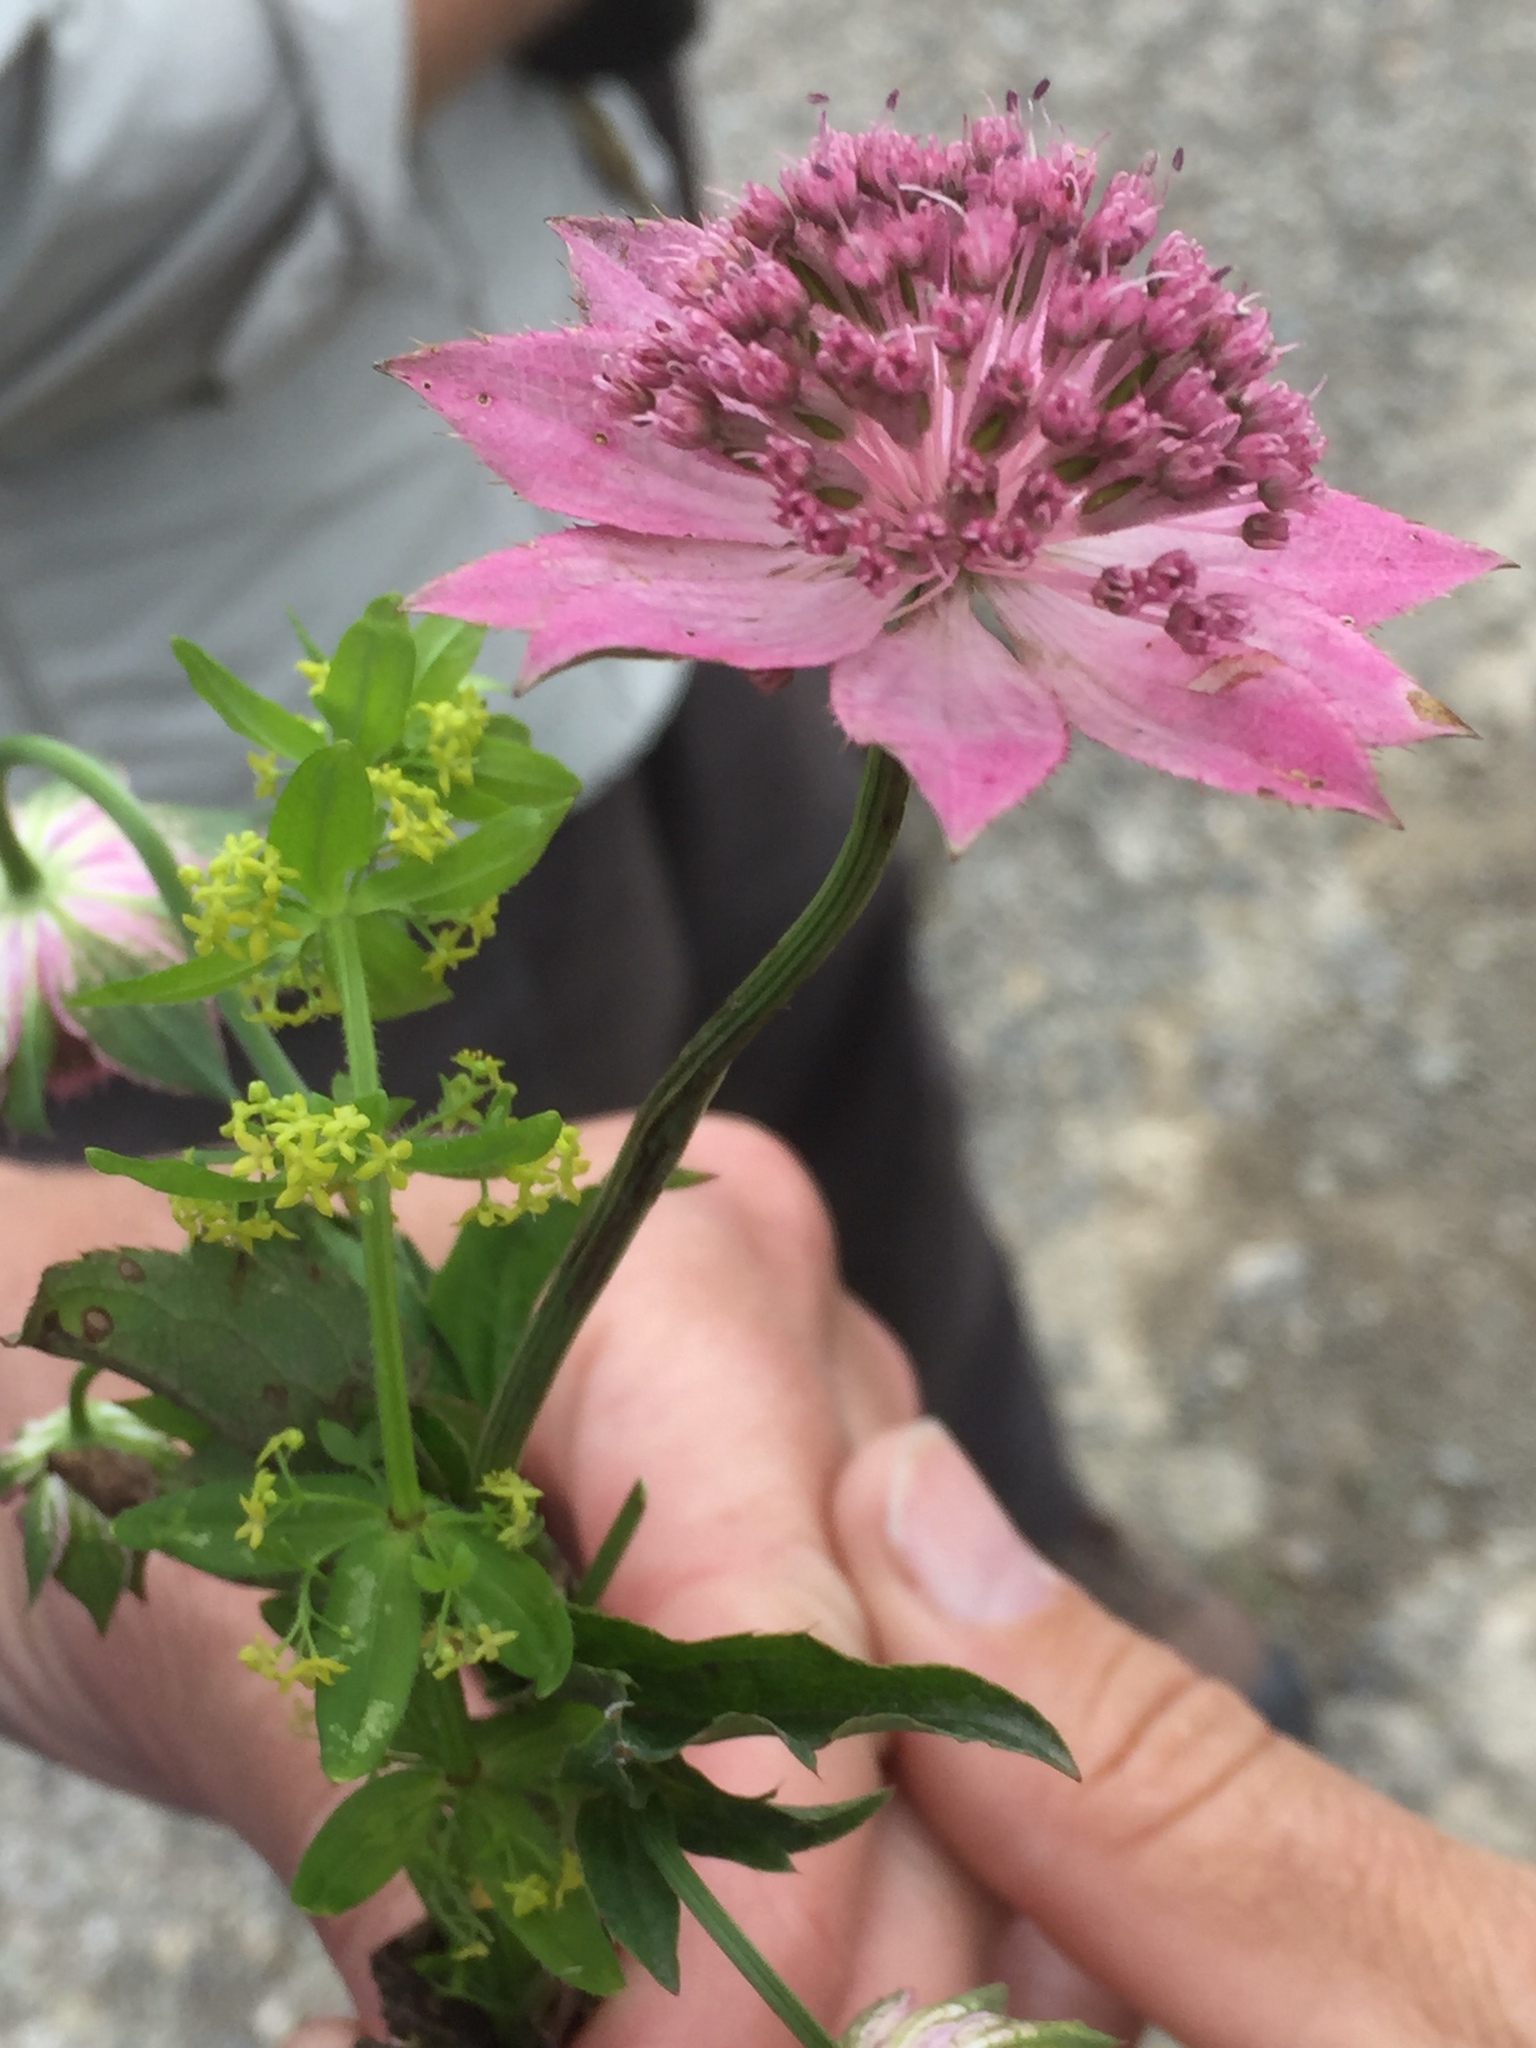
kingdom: Plantae
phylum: Tracheophyta
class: Magnoliopsida
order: Apiales
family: Apiaceae
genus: Astrantia
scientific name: Astrantia maxima
